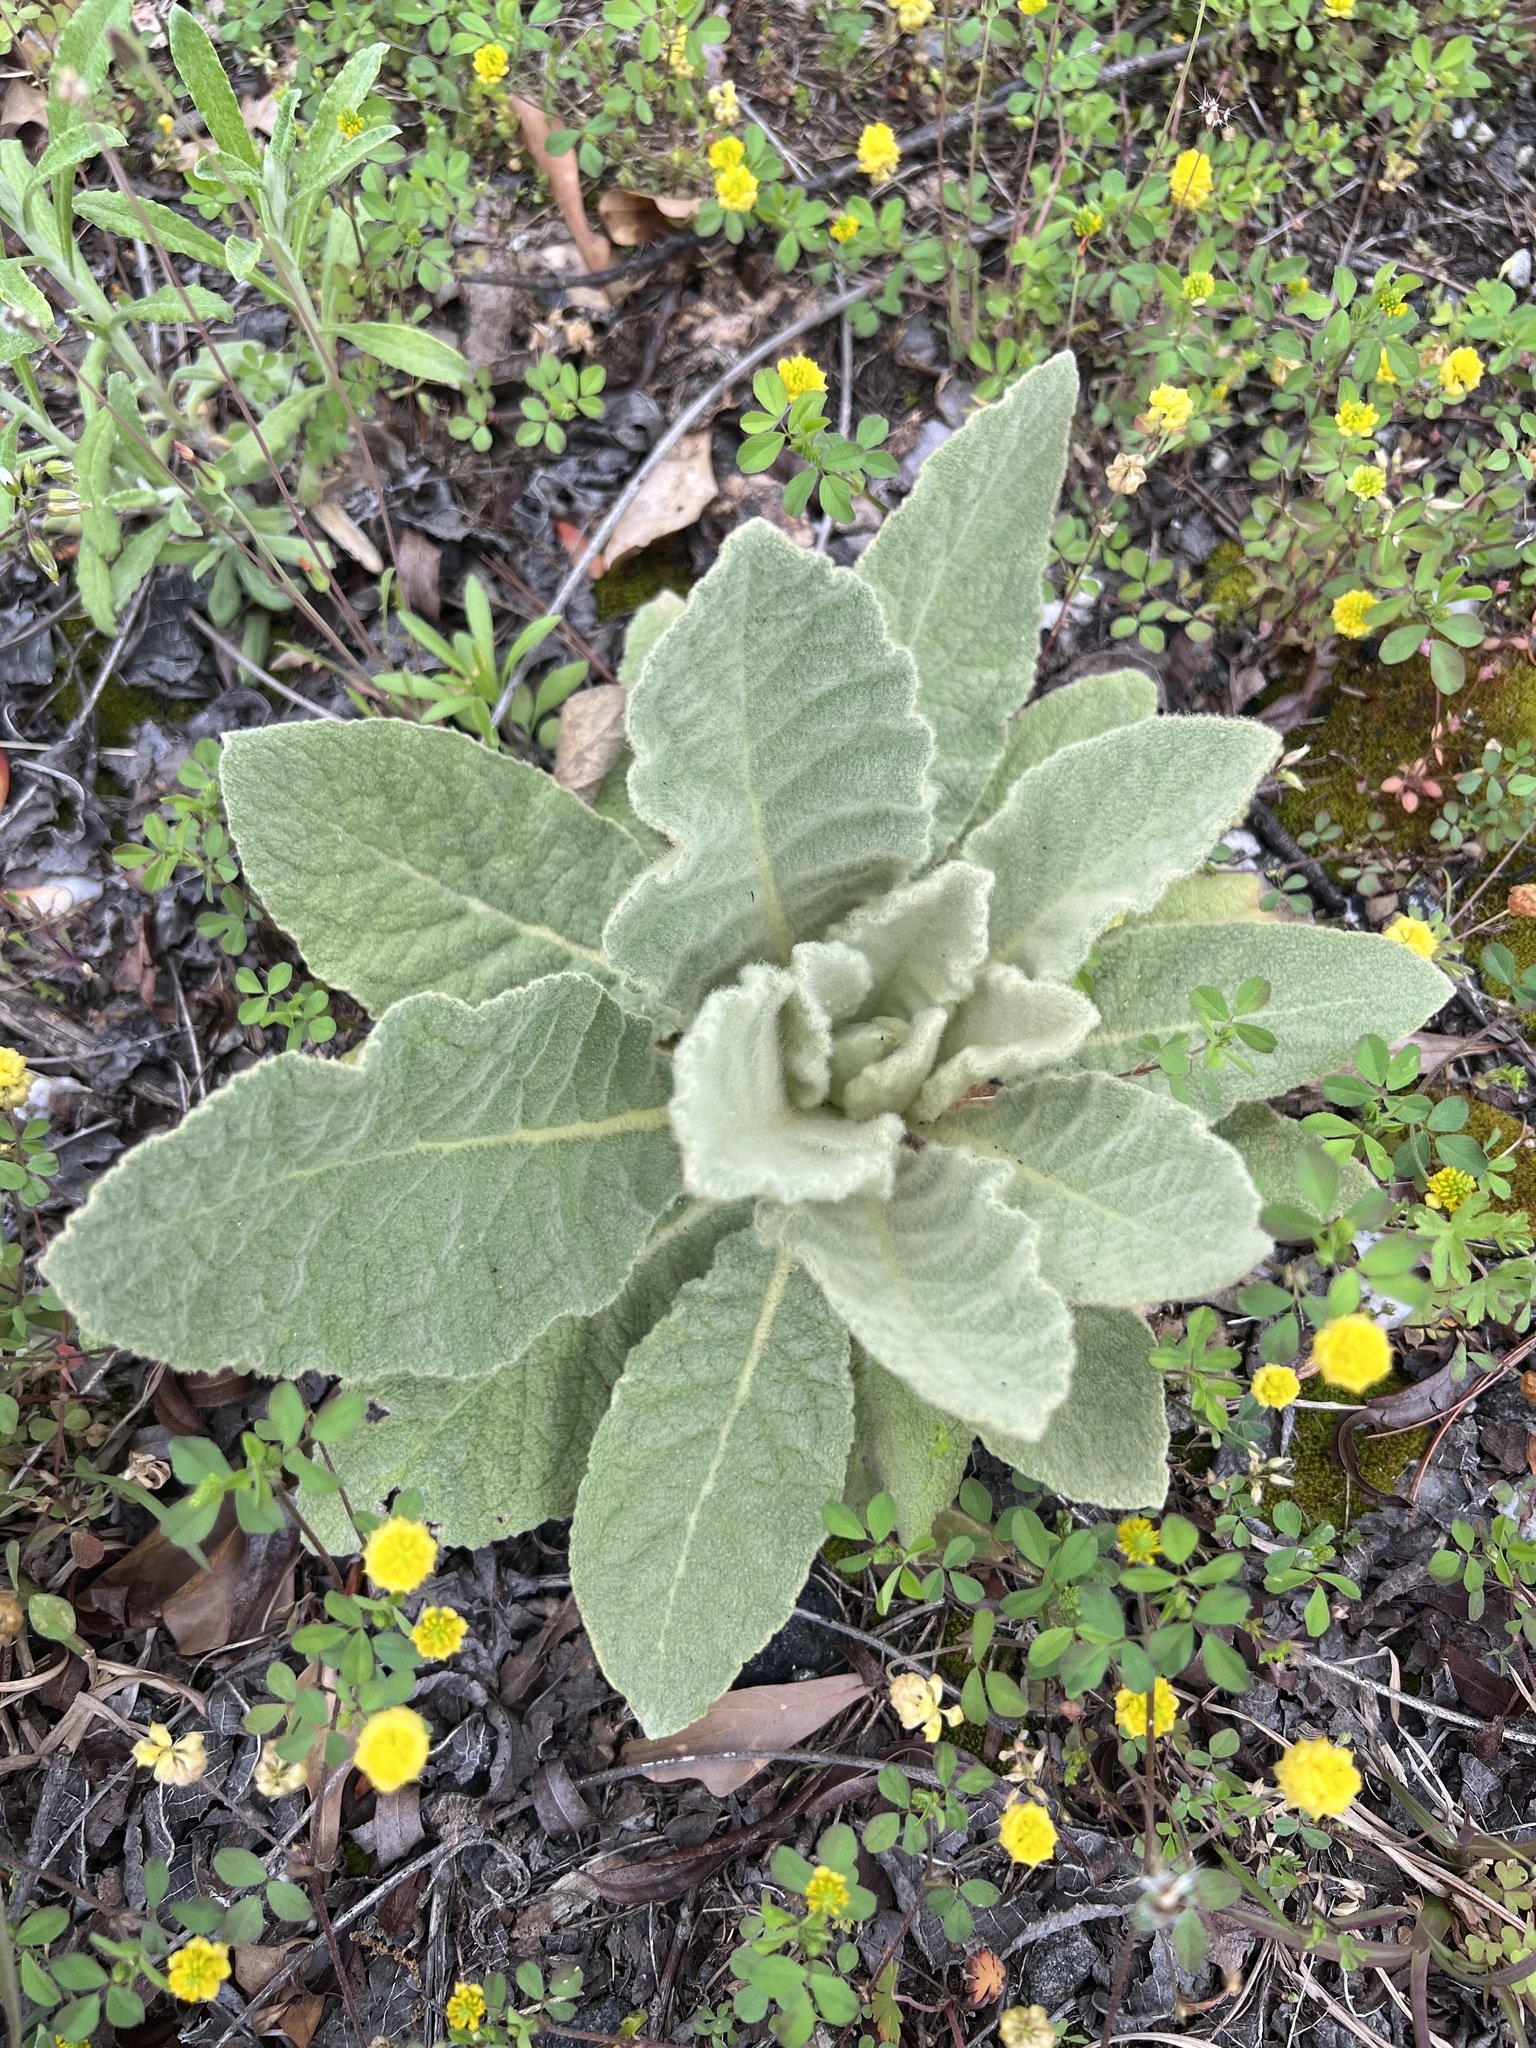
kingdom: Plantae
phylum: Tracheophyta
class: Magnoliopsida
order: Lamiales
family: Scrophulariaceae
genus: Verbascum
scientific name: Verbascum thapsus
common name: Common mullein
